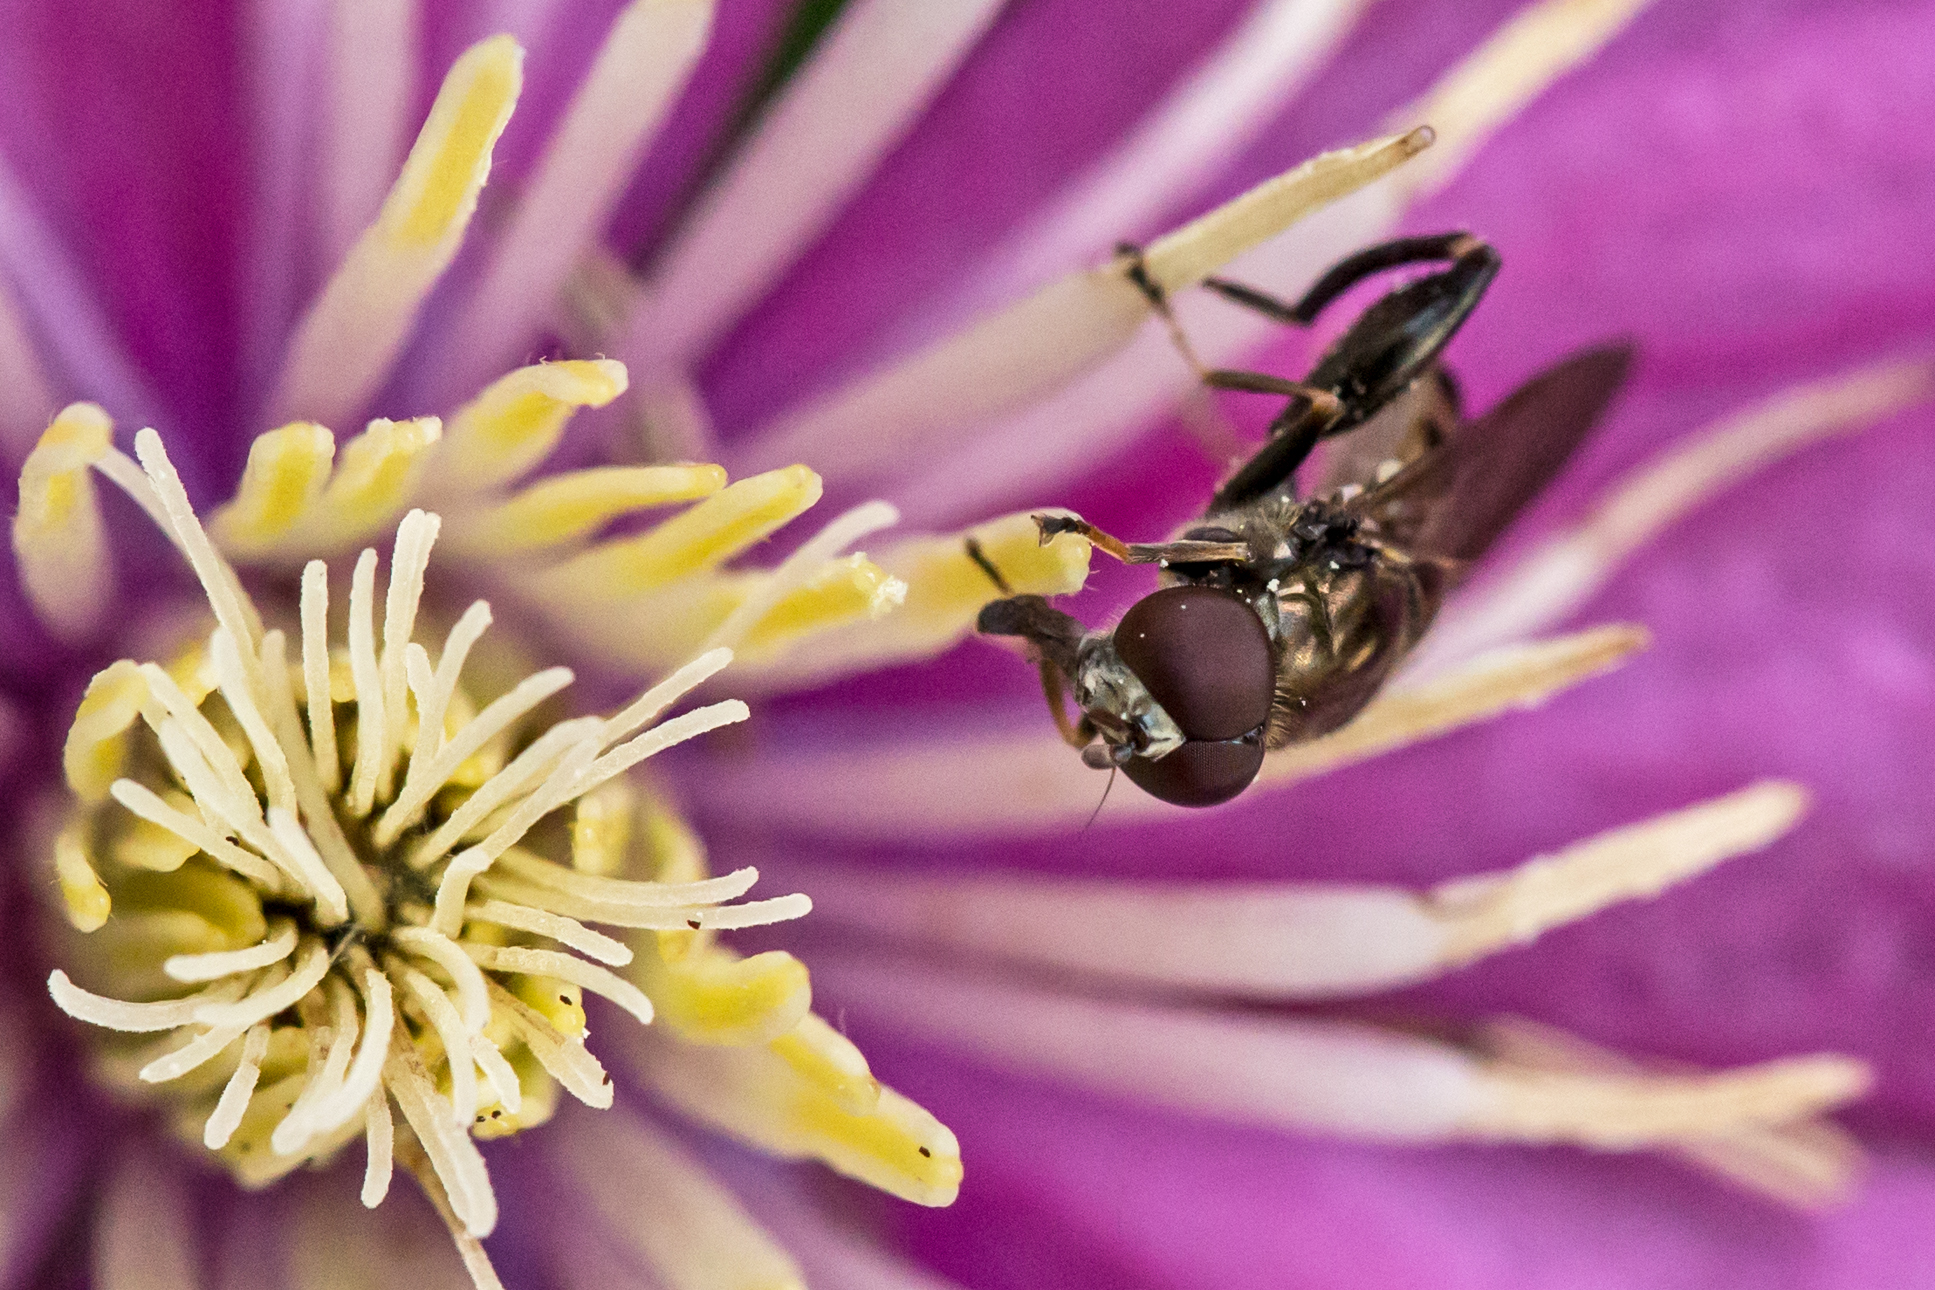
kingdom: Animalia
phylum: Arthropoda
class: Insecta
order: Diptera
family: Syrphidae
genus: Chalcosyrphus
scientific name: Chalcosyrphus nemorum
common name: Dusky-banded forest fly
